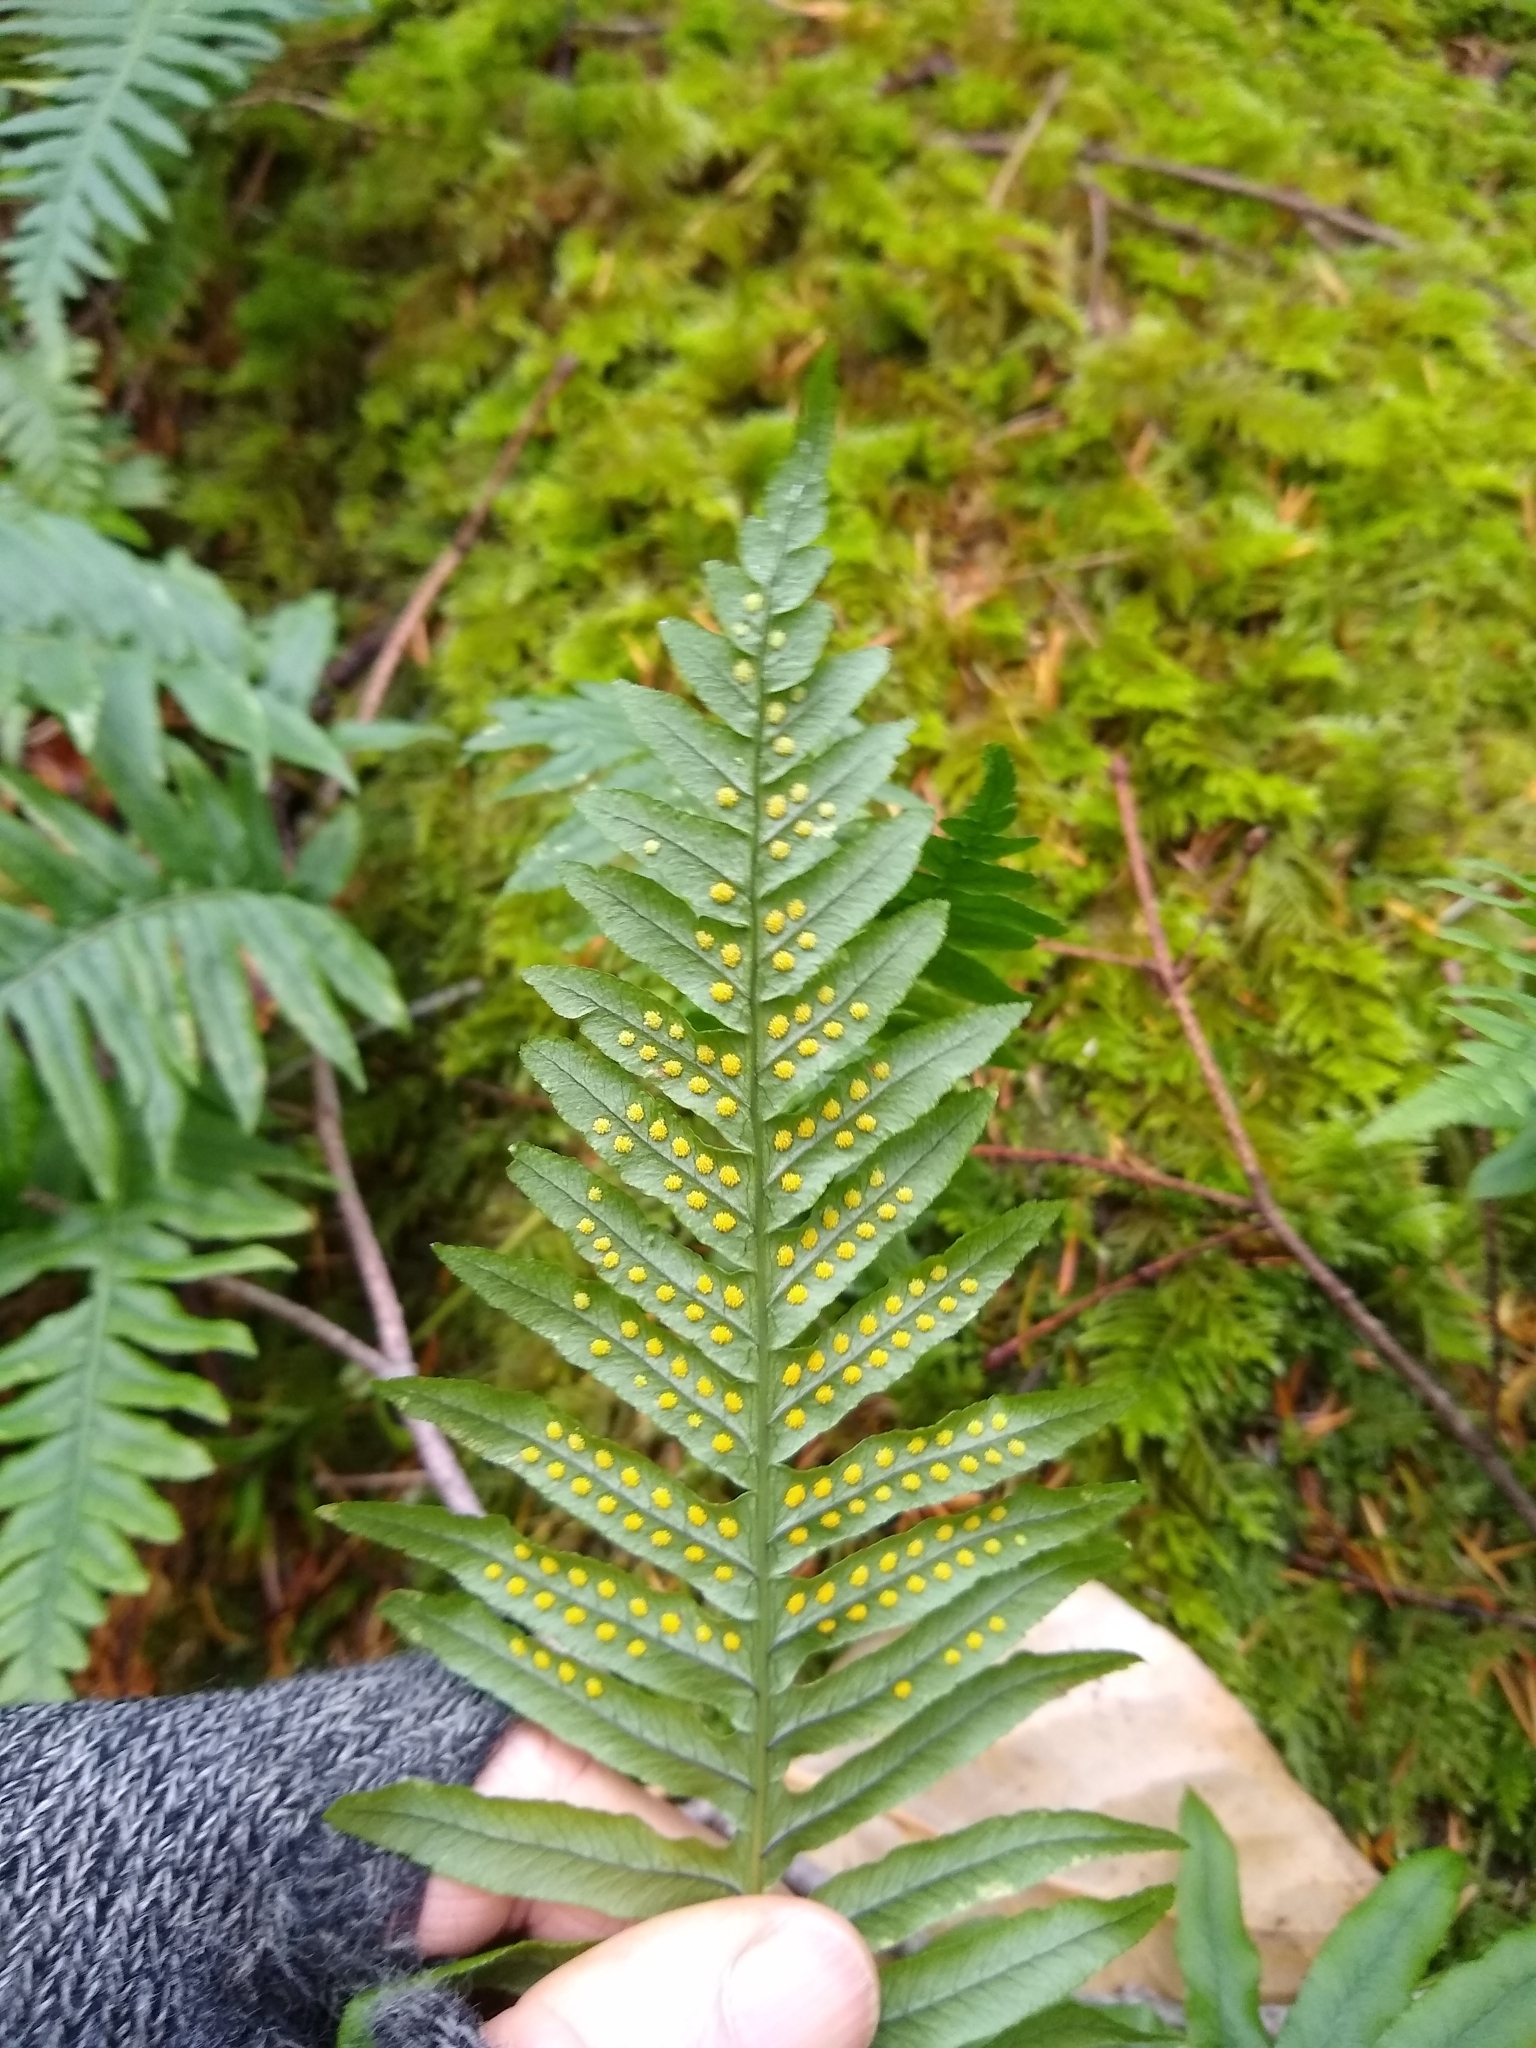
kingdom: Plantae
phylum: Tracheophyta
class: Polypodiopsida
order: Polypodiales
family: Polypodiaceae
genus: Polypodium
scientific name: Polypodium glycyrrhiza
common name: Licorice fern
